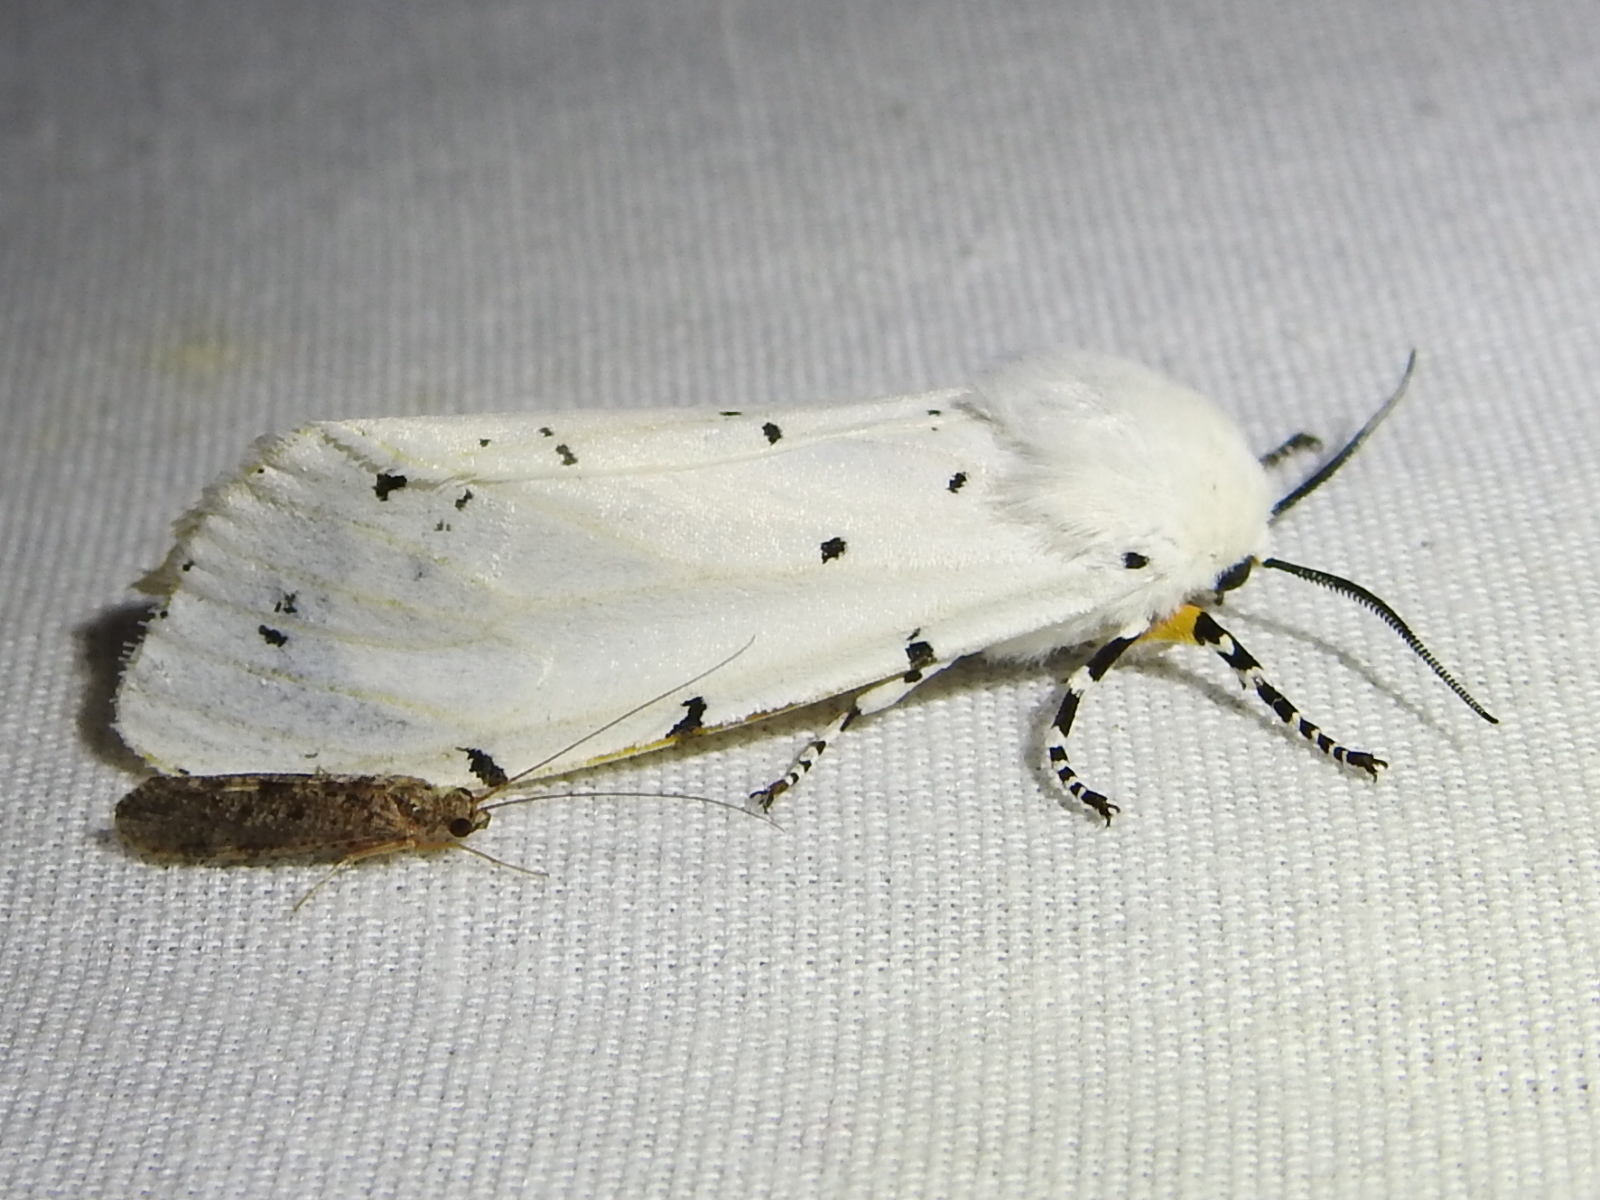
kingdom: Animalia
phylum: Arthropoda
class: Insecta
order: Lepidoptera
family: Erebidae
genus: Estigmene
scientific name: Estigmene acrea
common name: Salt marsh moth
